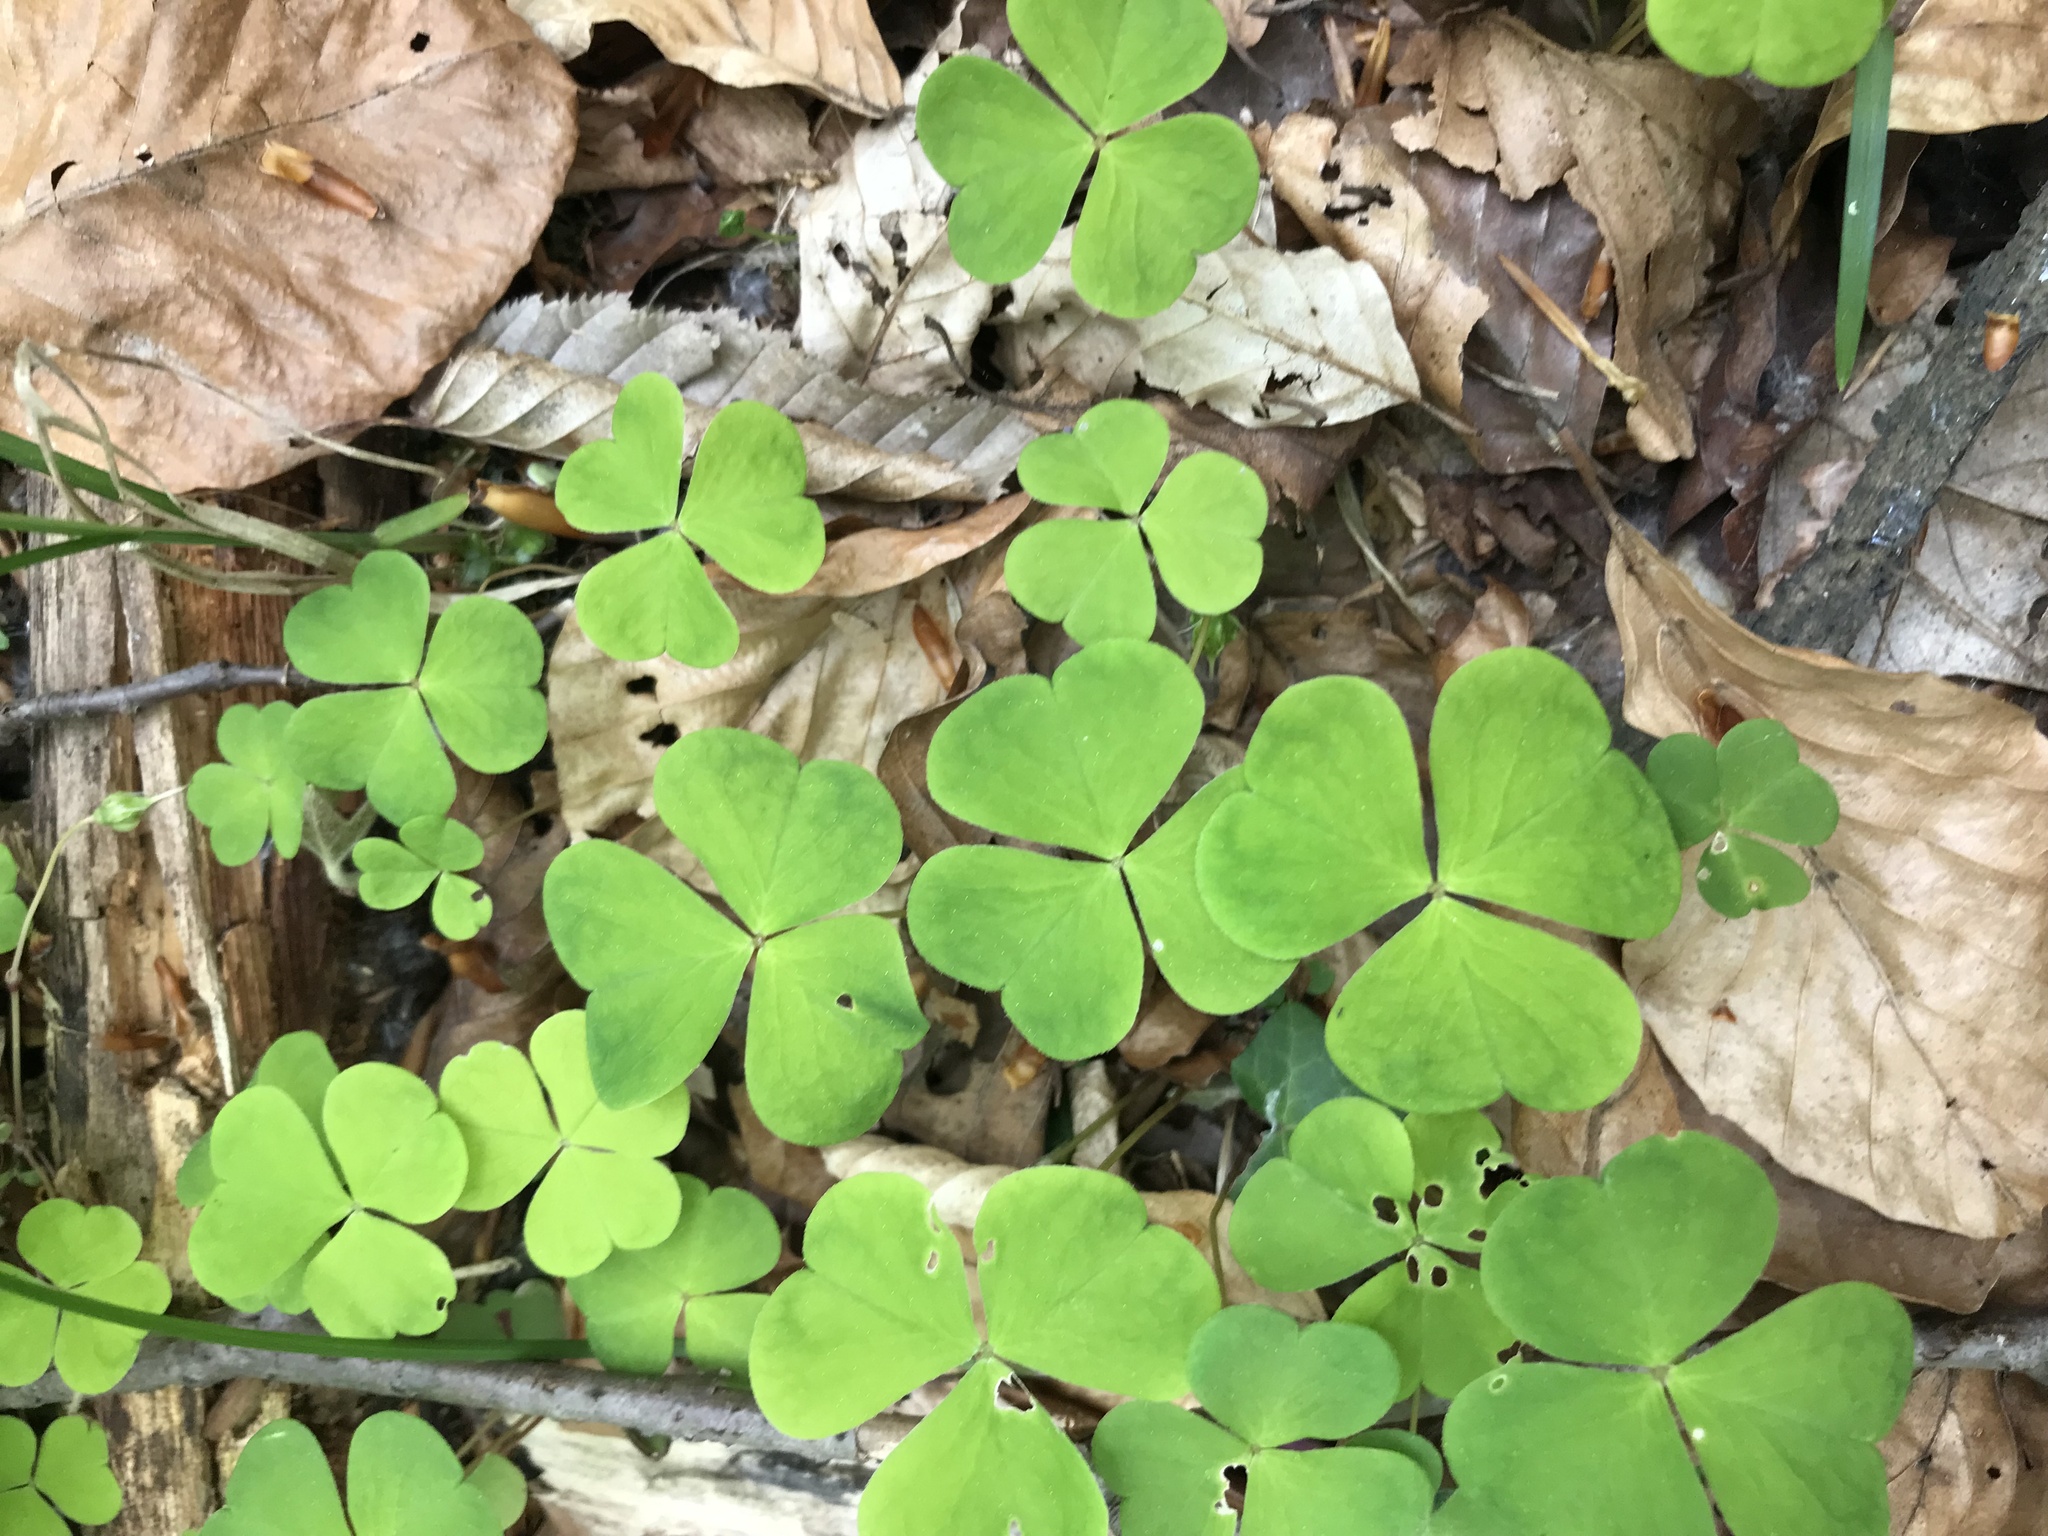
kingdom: Plantae
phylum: Tracheophyta
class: Magnoliopsida
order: Oxalidales
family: Oxalidaceae
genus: Oxalis
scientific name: Oxalis acetosella
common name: Wood-sorrel
